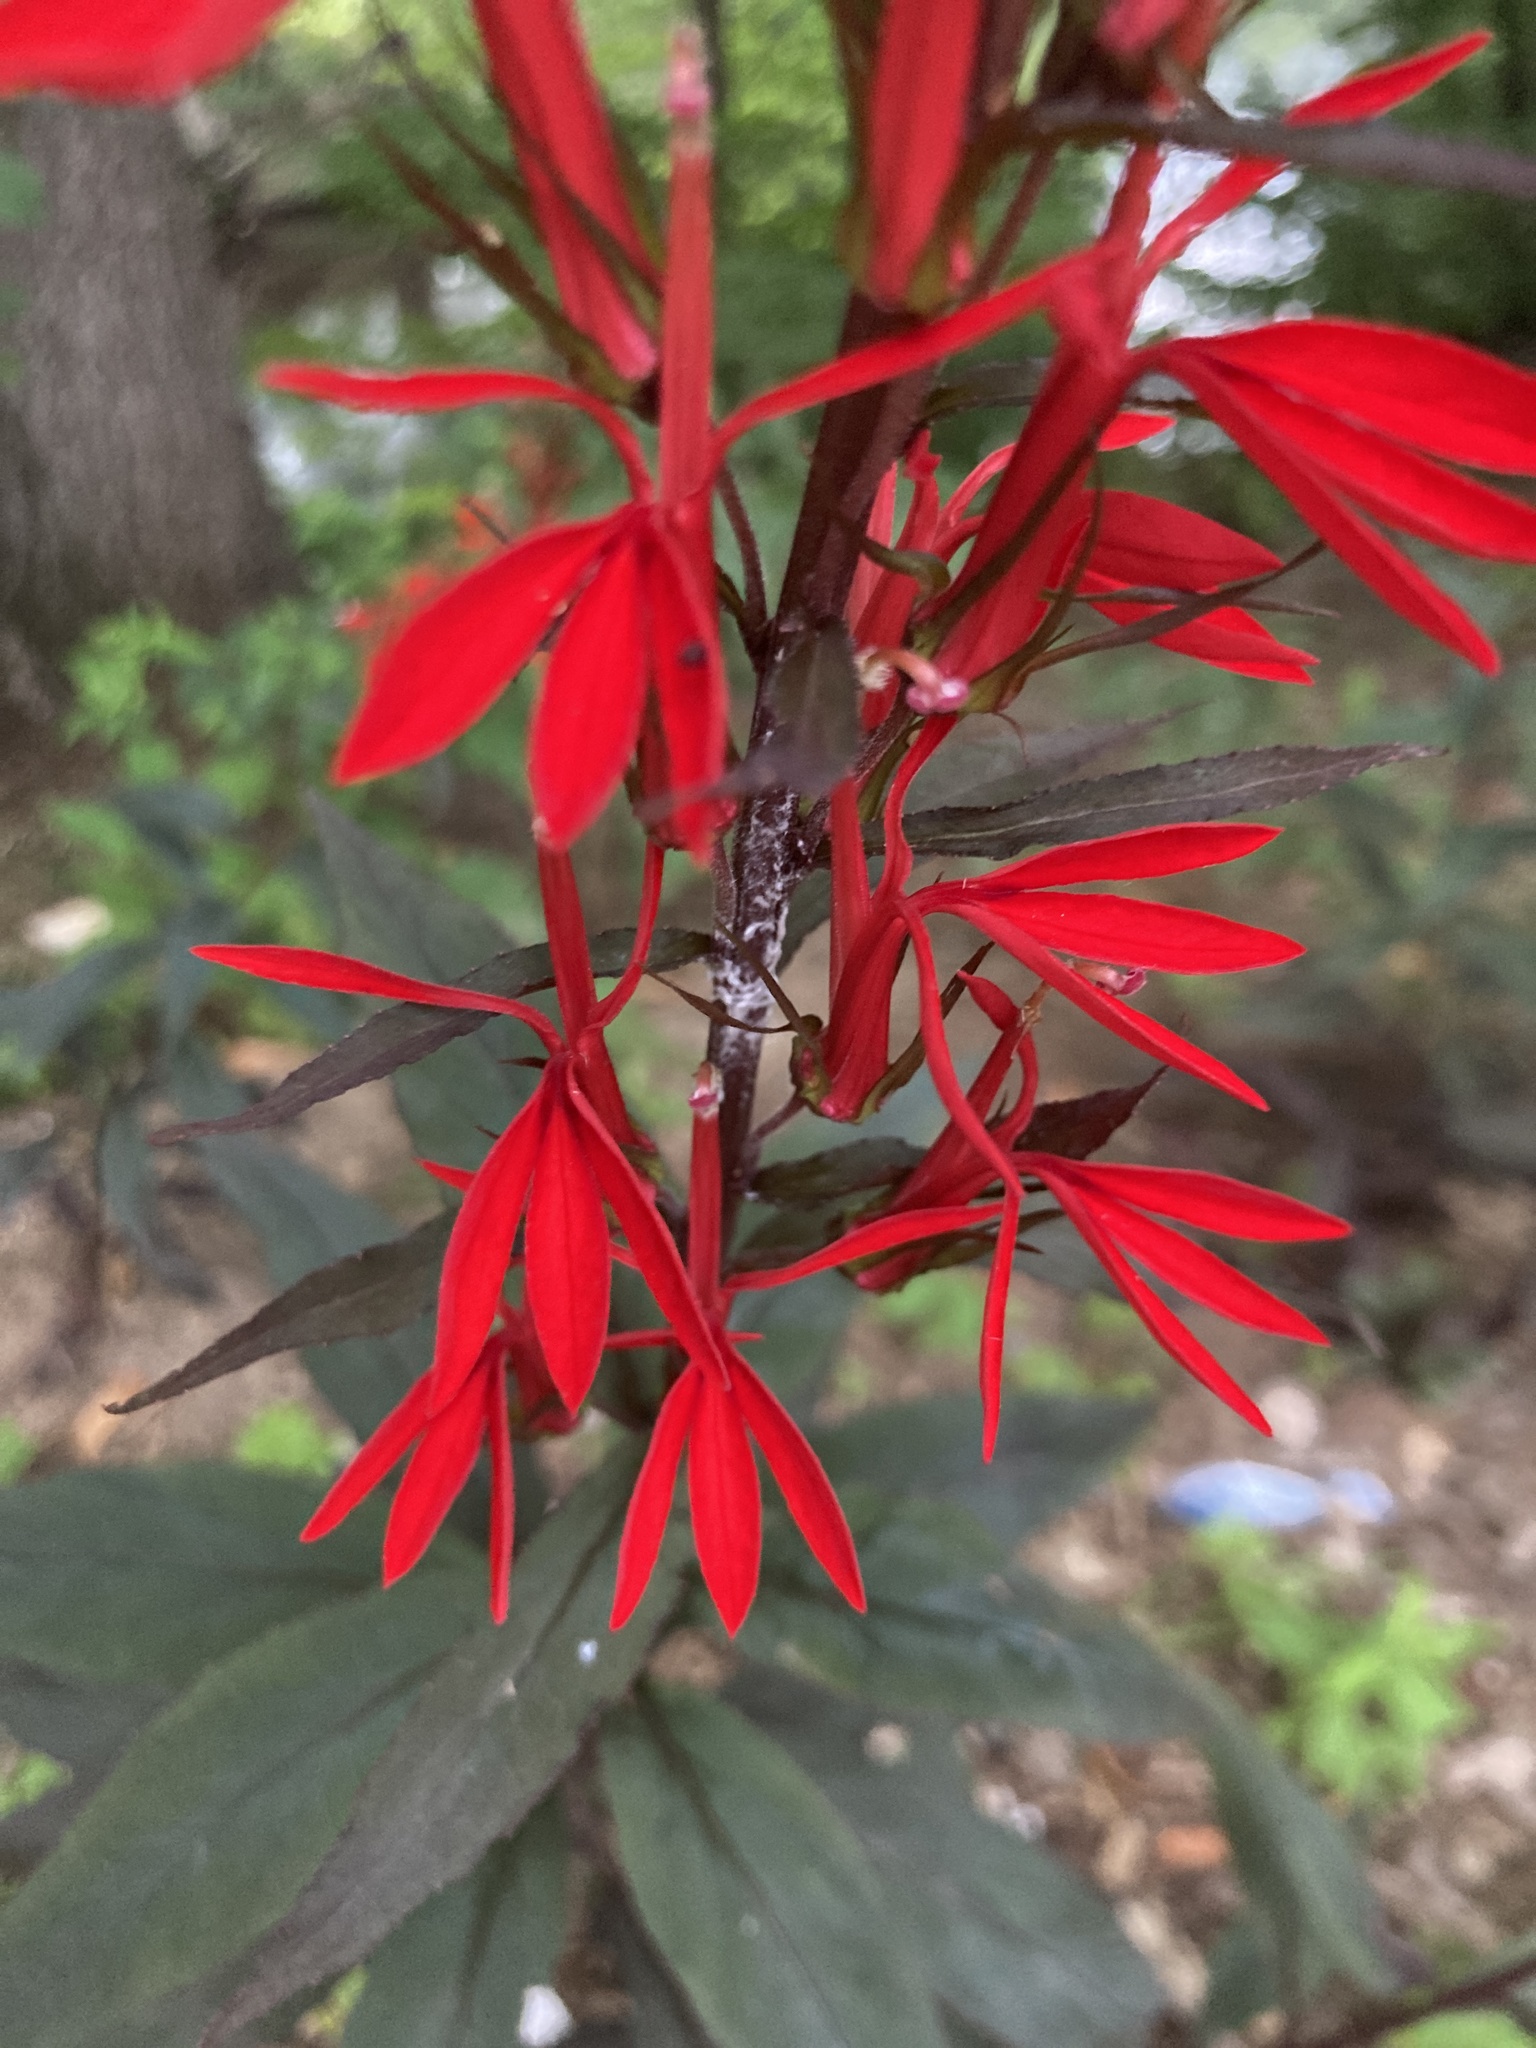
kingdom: Plantae
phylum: Tracheophyta
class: Magnoliopsida
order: Asterales
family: Campanulaceae
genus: Lobelia
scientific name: Lobelia cardinalis
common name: Cardinal flower
